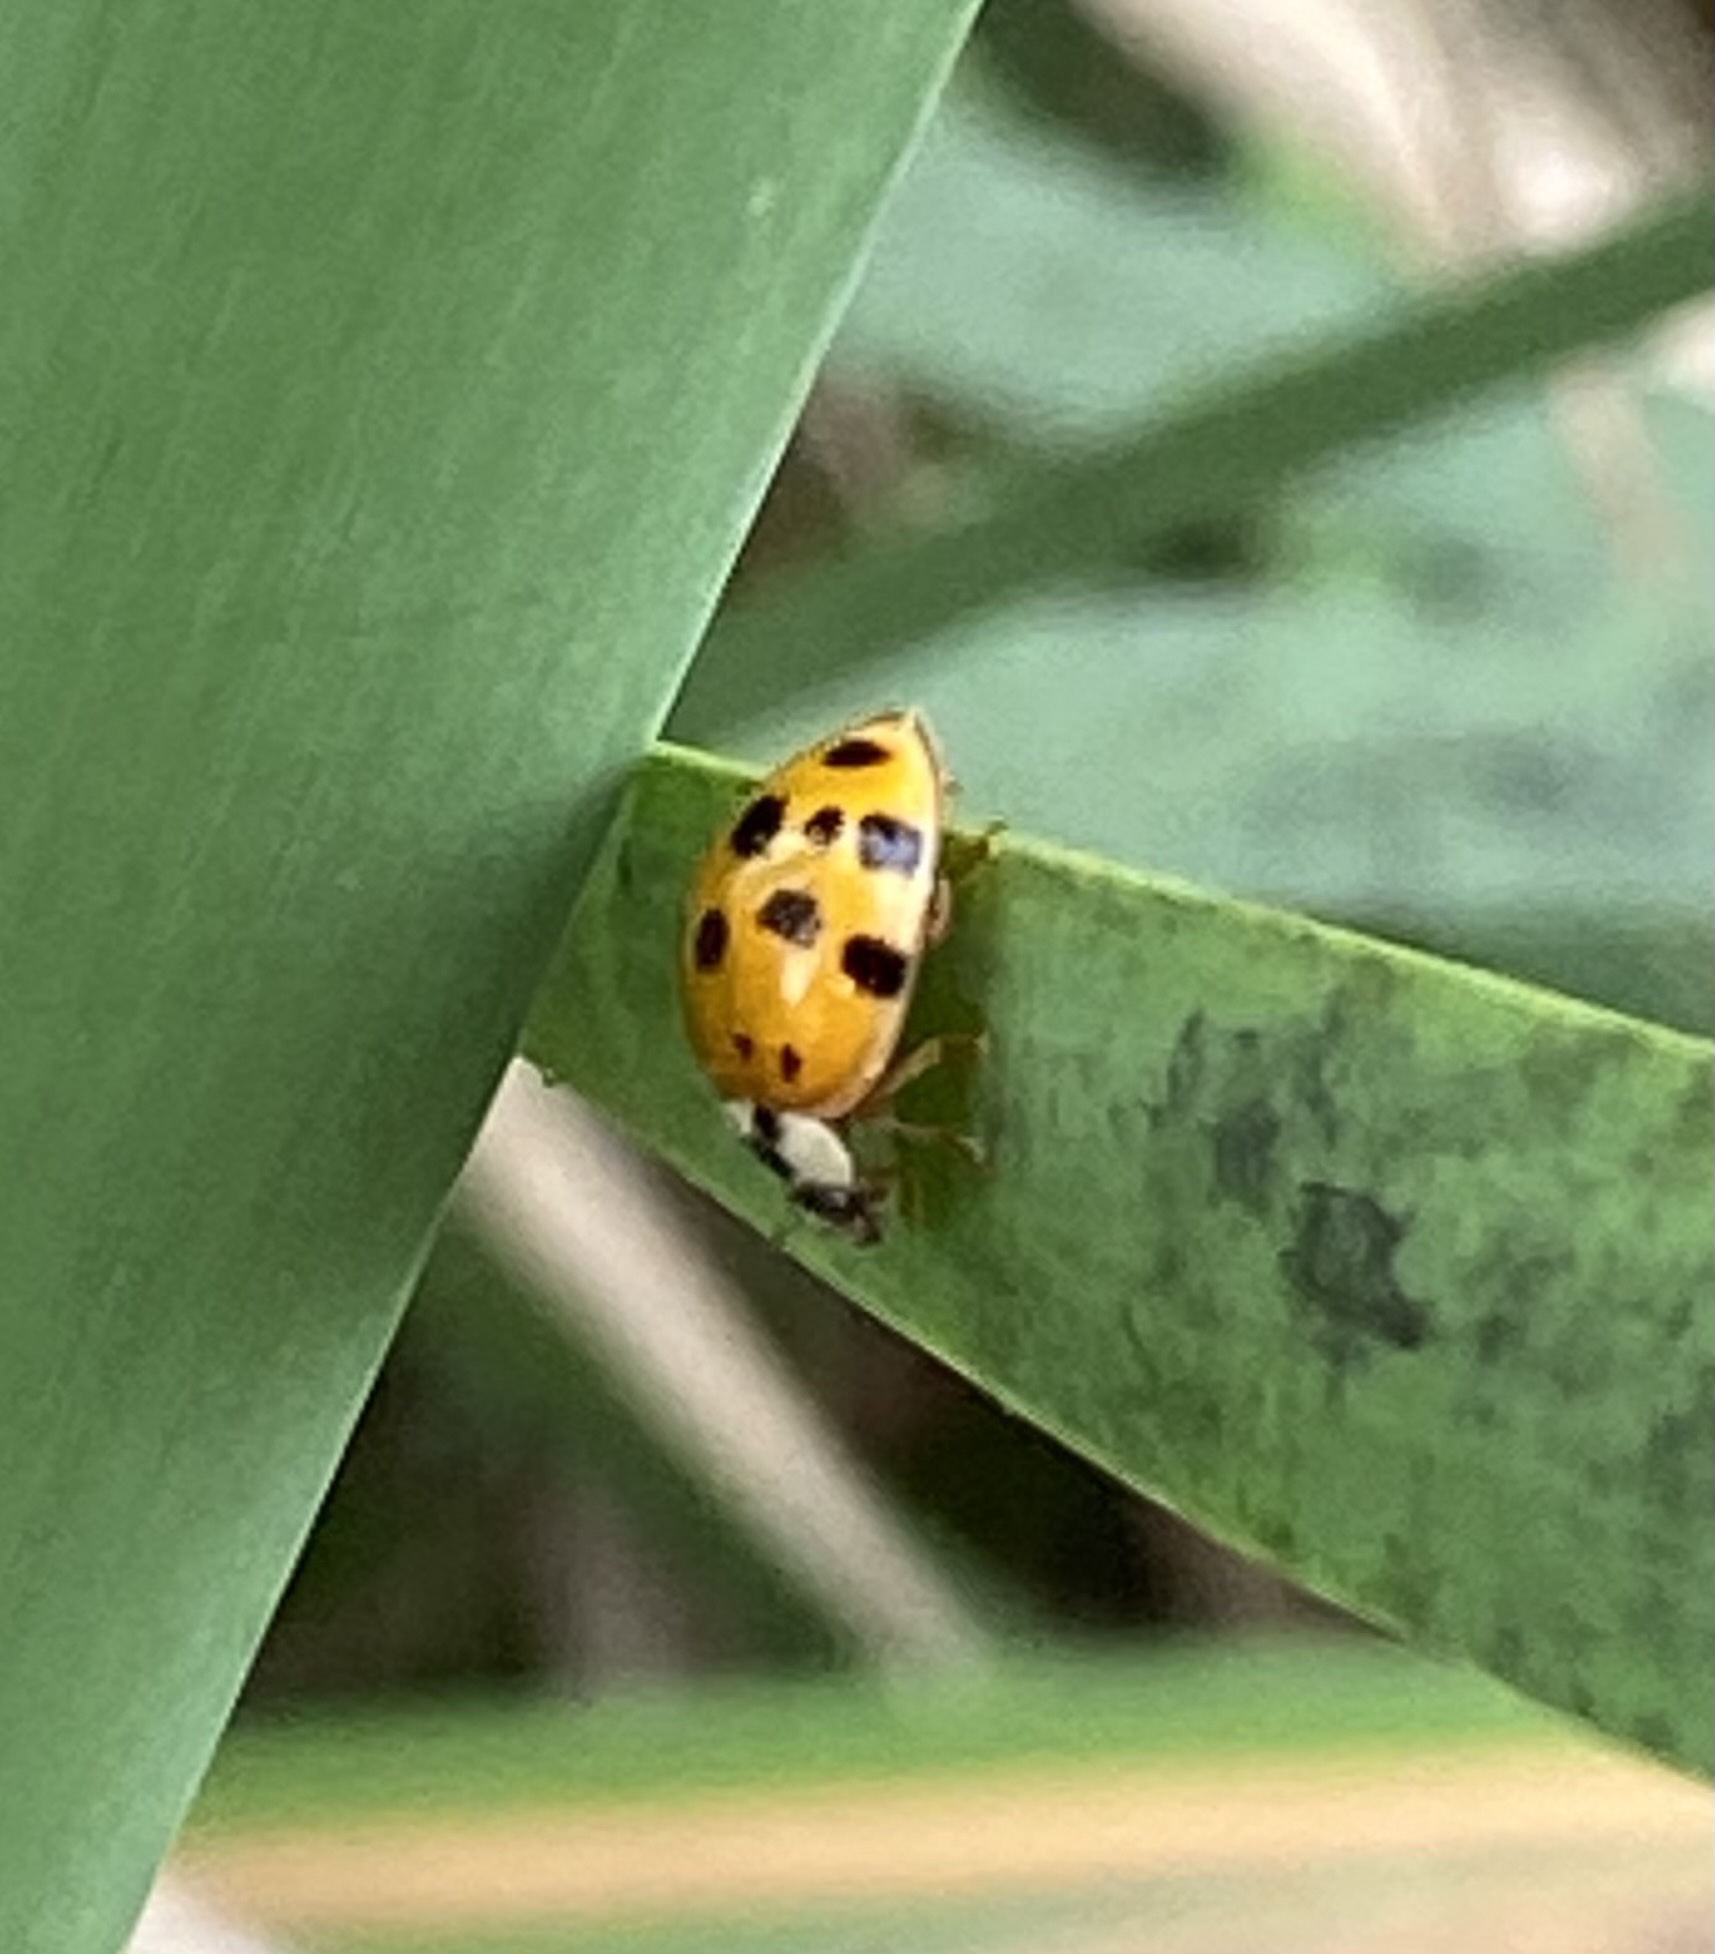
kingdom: Animalia
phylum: Arthropoda
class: Insecta
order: Coleoptera
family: Coccinellidae
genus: Harmonia
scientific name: Harmonia axyridis
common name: Harlequin ladybird
